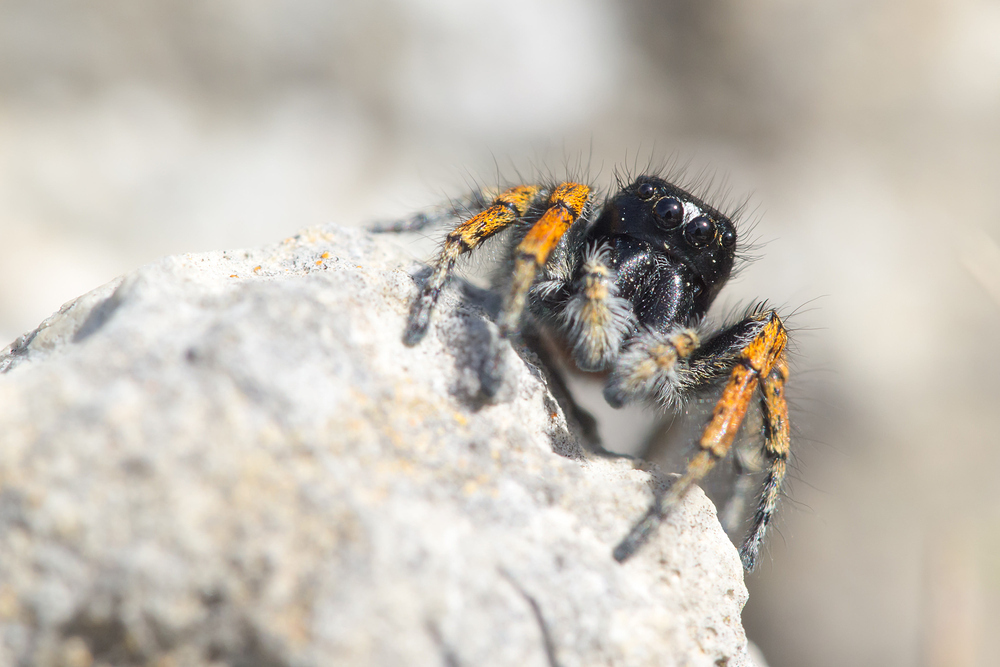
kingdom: Animalia
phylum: Arthropoda
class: Arachnida
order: Araneae
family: Salticidae
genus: Philaeus
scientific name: Philaeus chrysops
